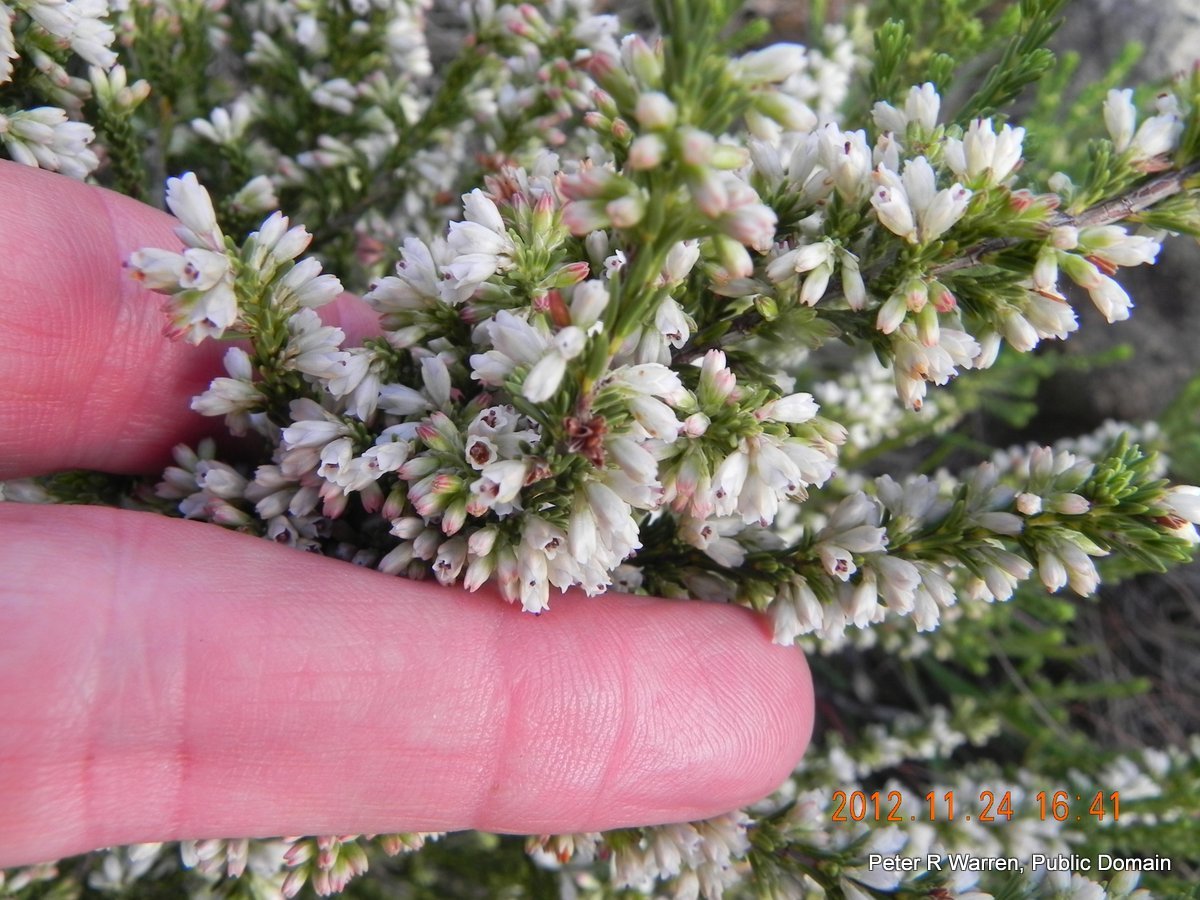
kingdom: Plantae
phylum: Tracheophyta
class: Magnoliopsida
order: Ericales
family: Ericaceae
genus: Erica
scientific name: Erica caffrorum
